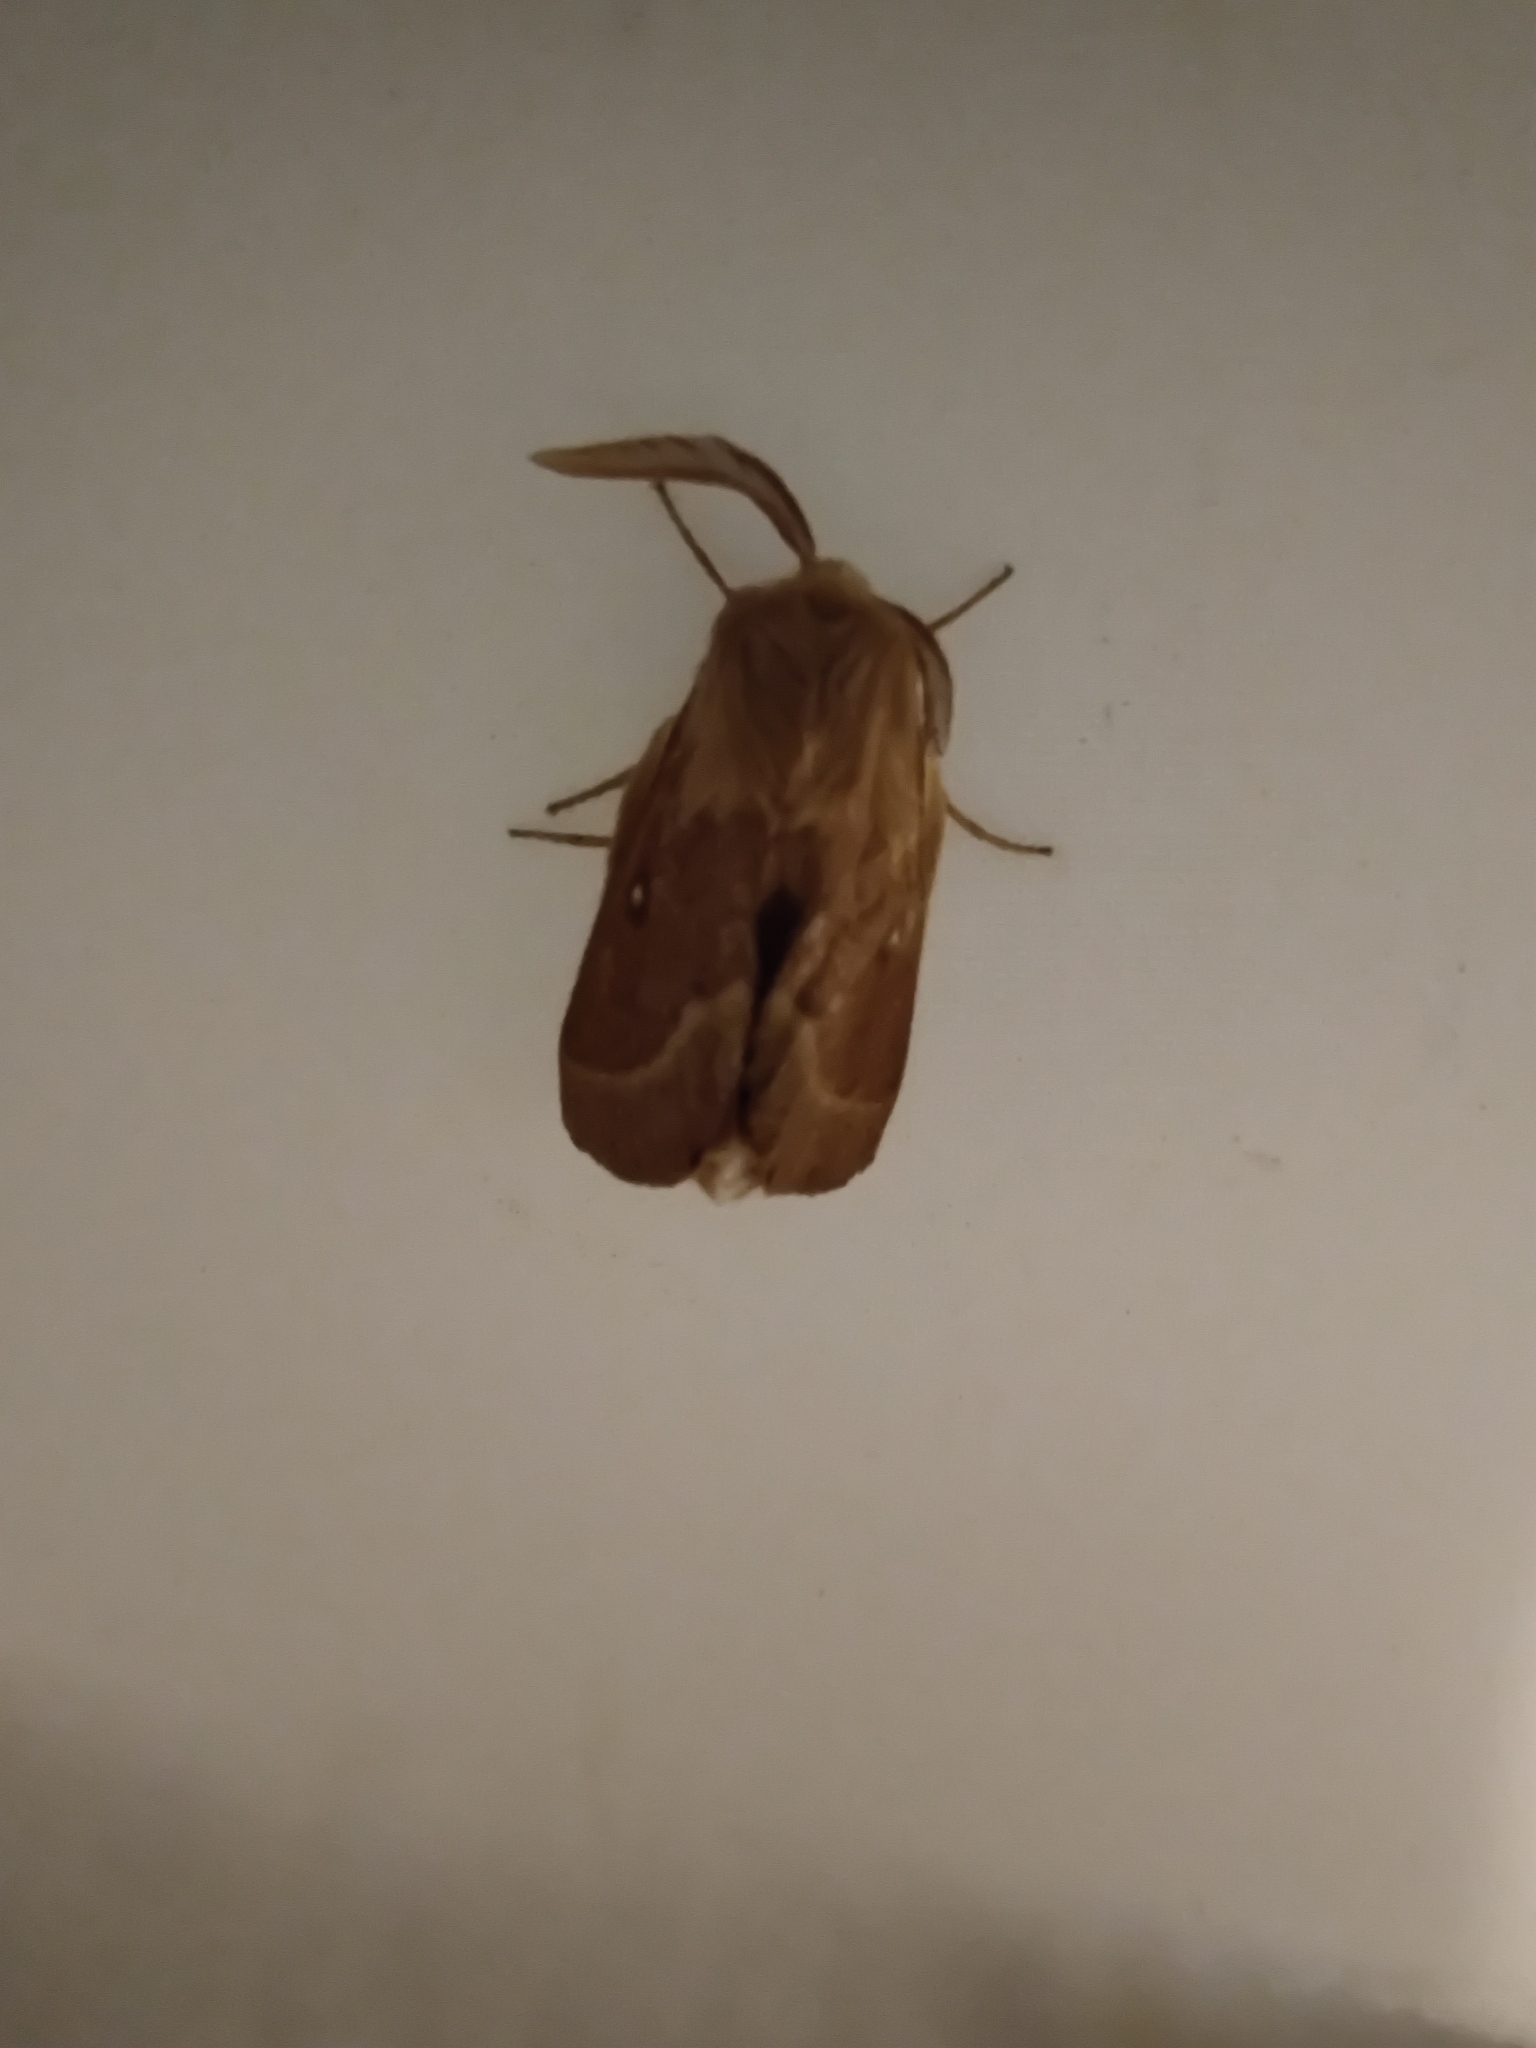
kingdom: Animalia
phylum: Arthropoda
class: Insecta
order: Lepidoptera
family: Lasiocampidae
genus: Lasiocampa
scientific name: Lasiocampa trifolii
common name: Grass eggar
